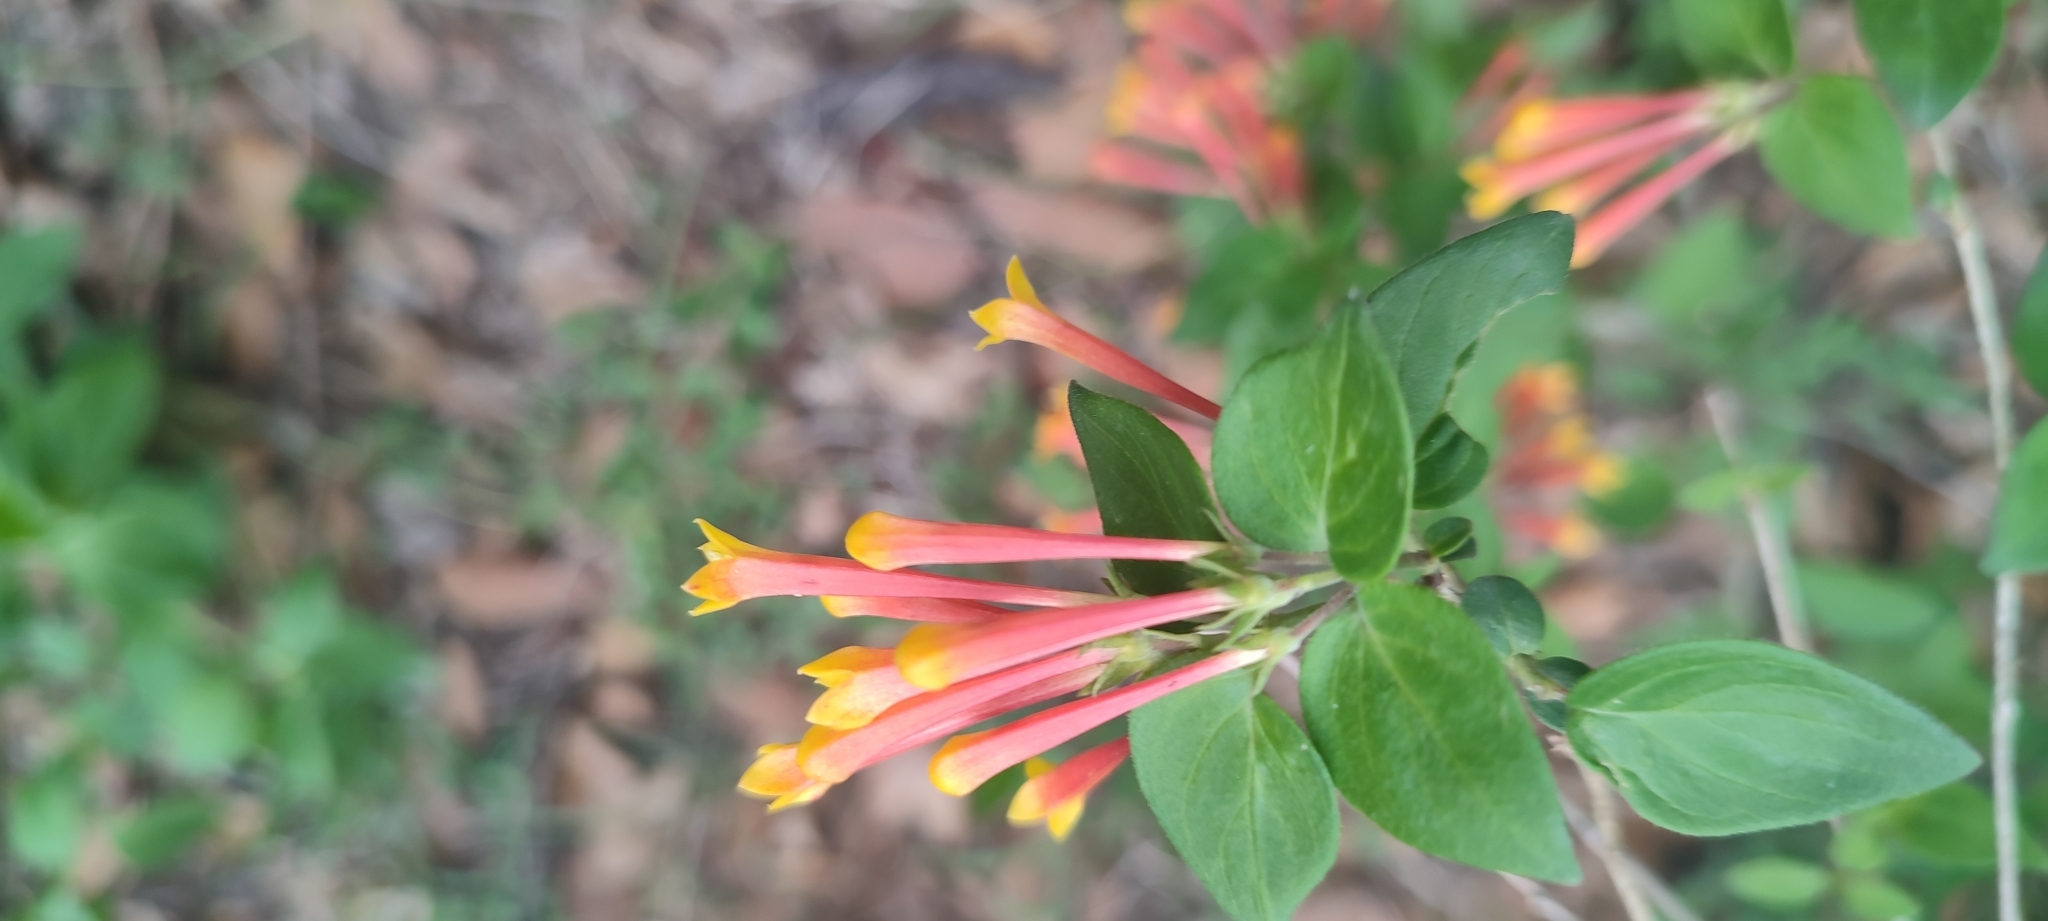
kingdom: Plantae
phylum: Tracheophyta
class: Magnoliopsida
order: Gentianales
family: Rubiaceae
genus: Bouvardia
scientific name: Bouvardia chrysantha
